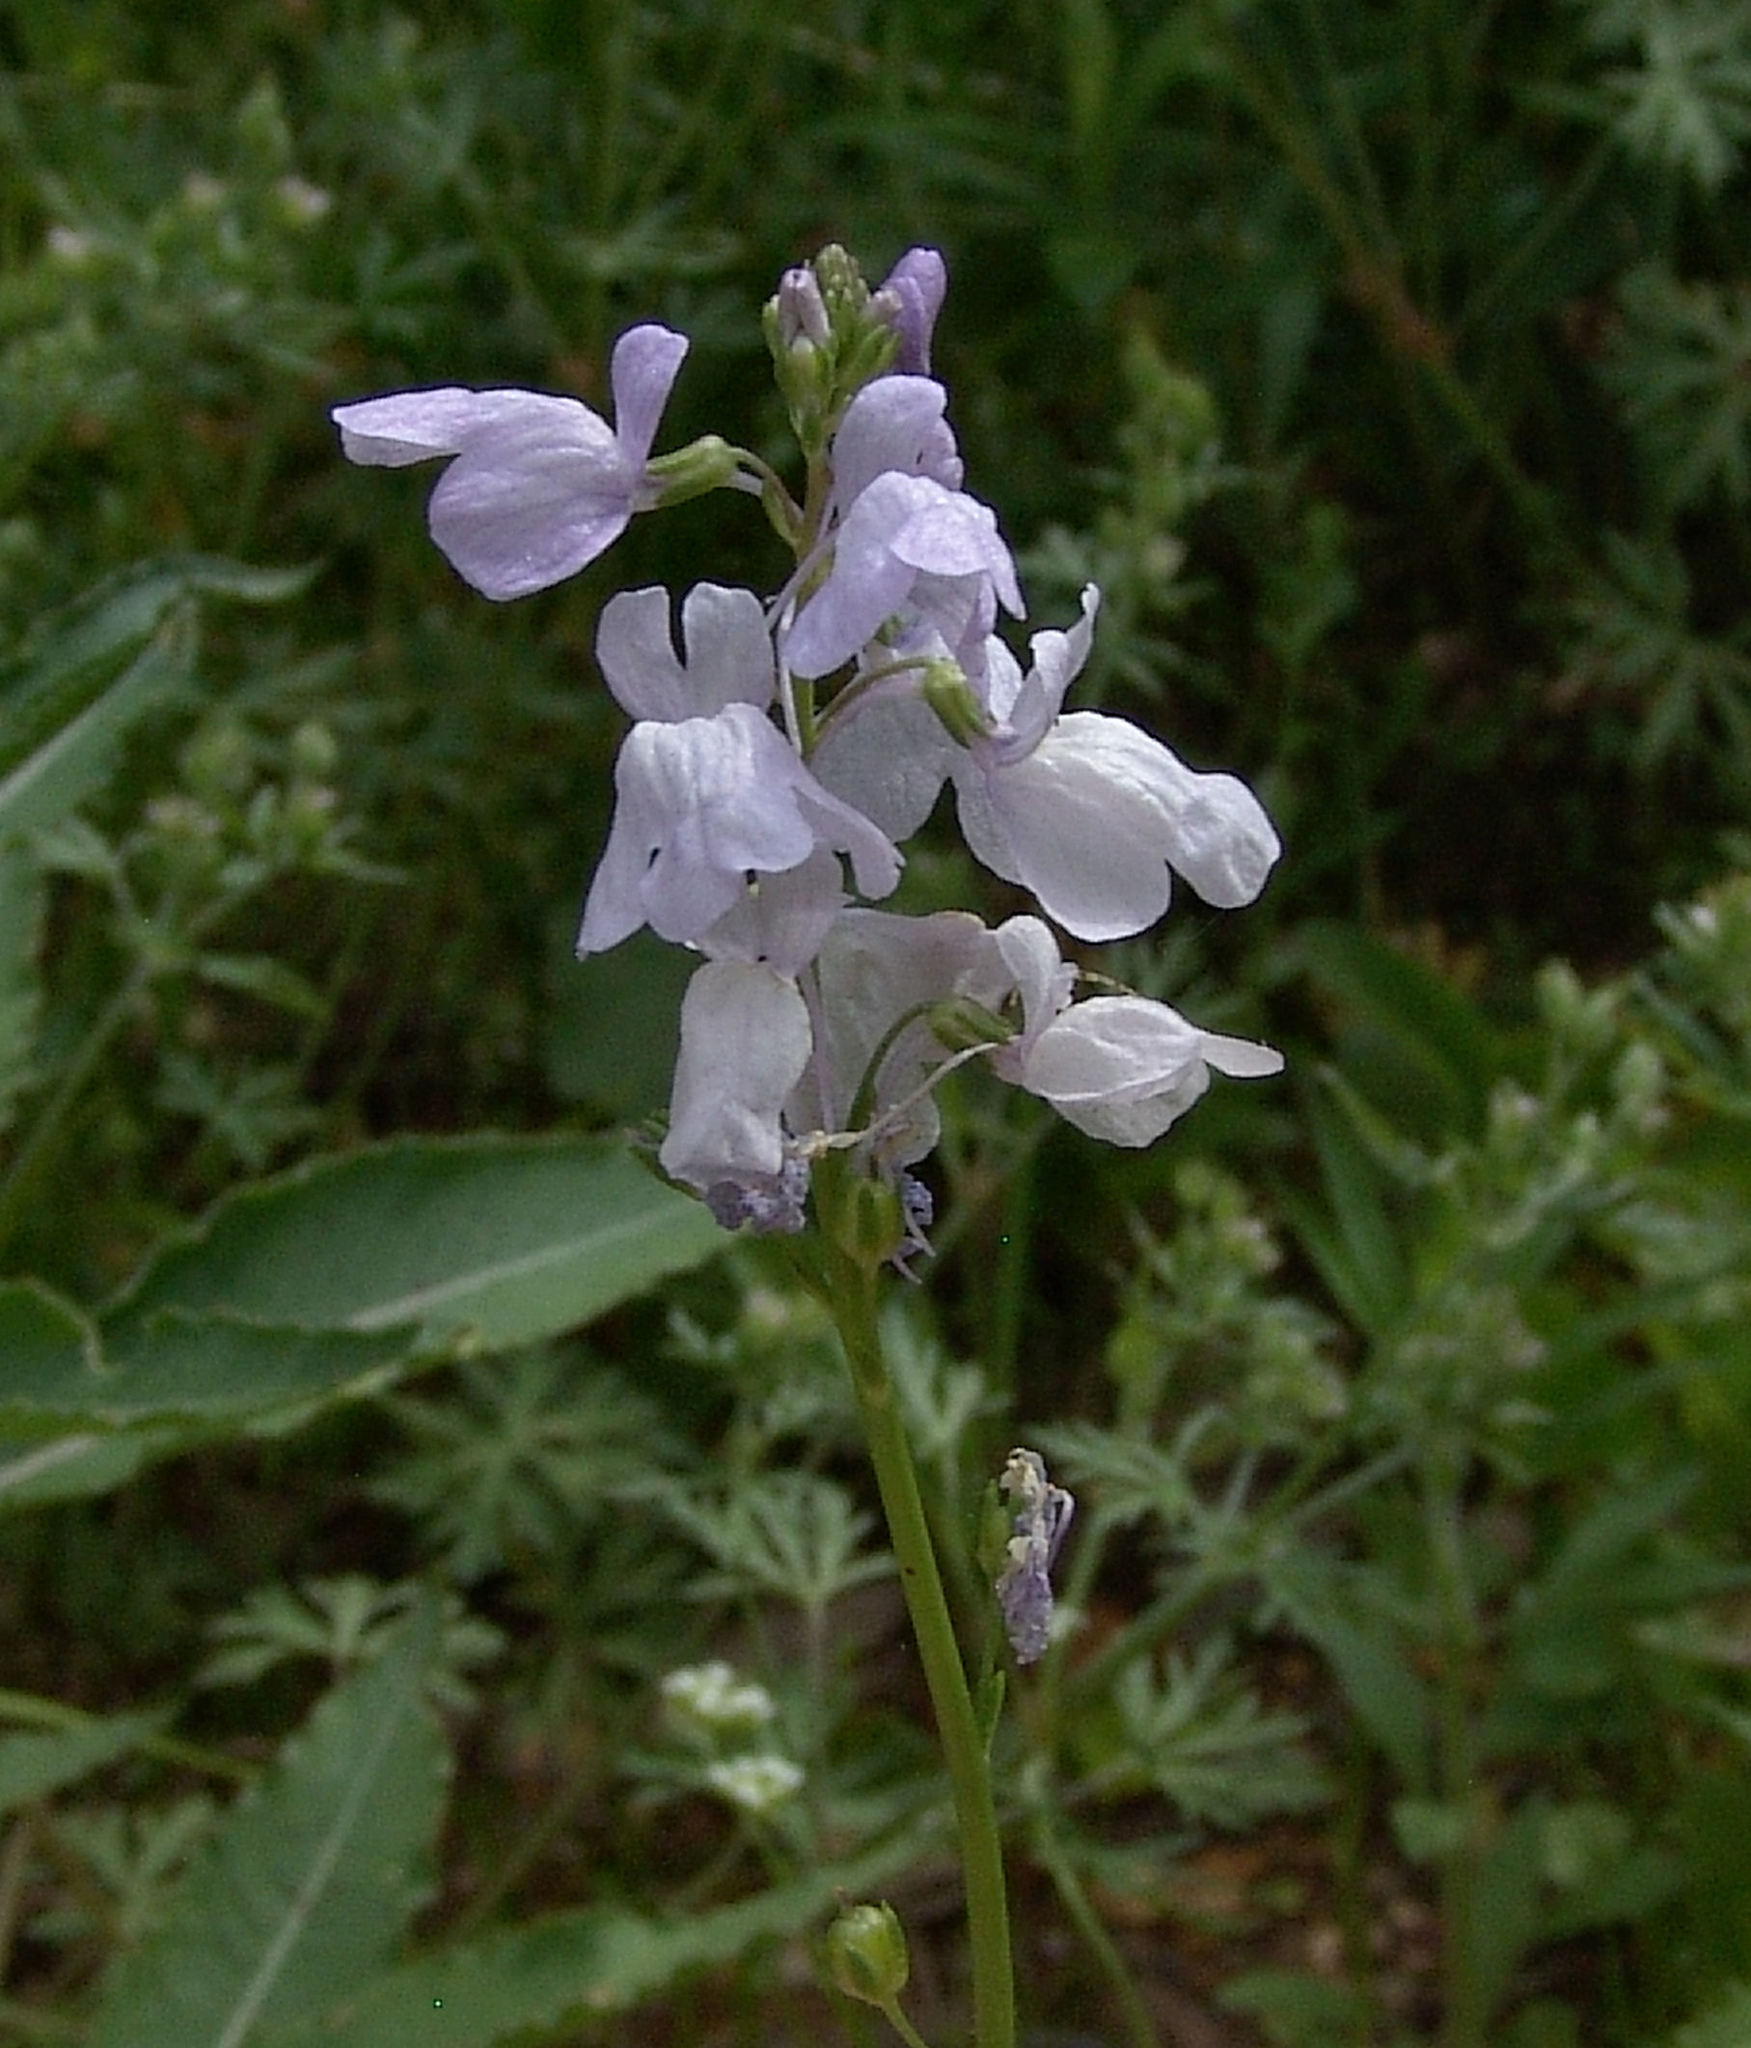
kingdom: Plantae
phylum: Tracheophyta
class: Magnoliopsida
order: Lamiales
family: Plantaginaceae
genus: Nuttallanthus
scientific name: Nuttallanthus texanus
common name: Texas toadflax
